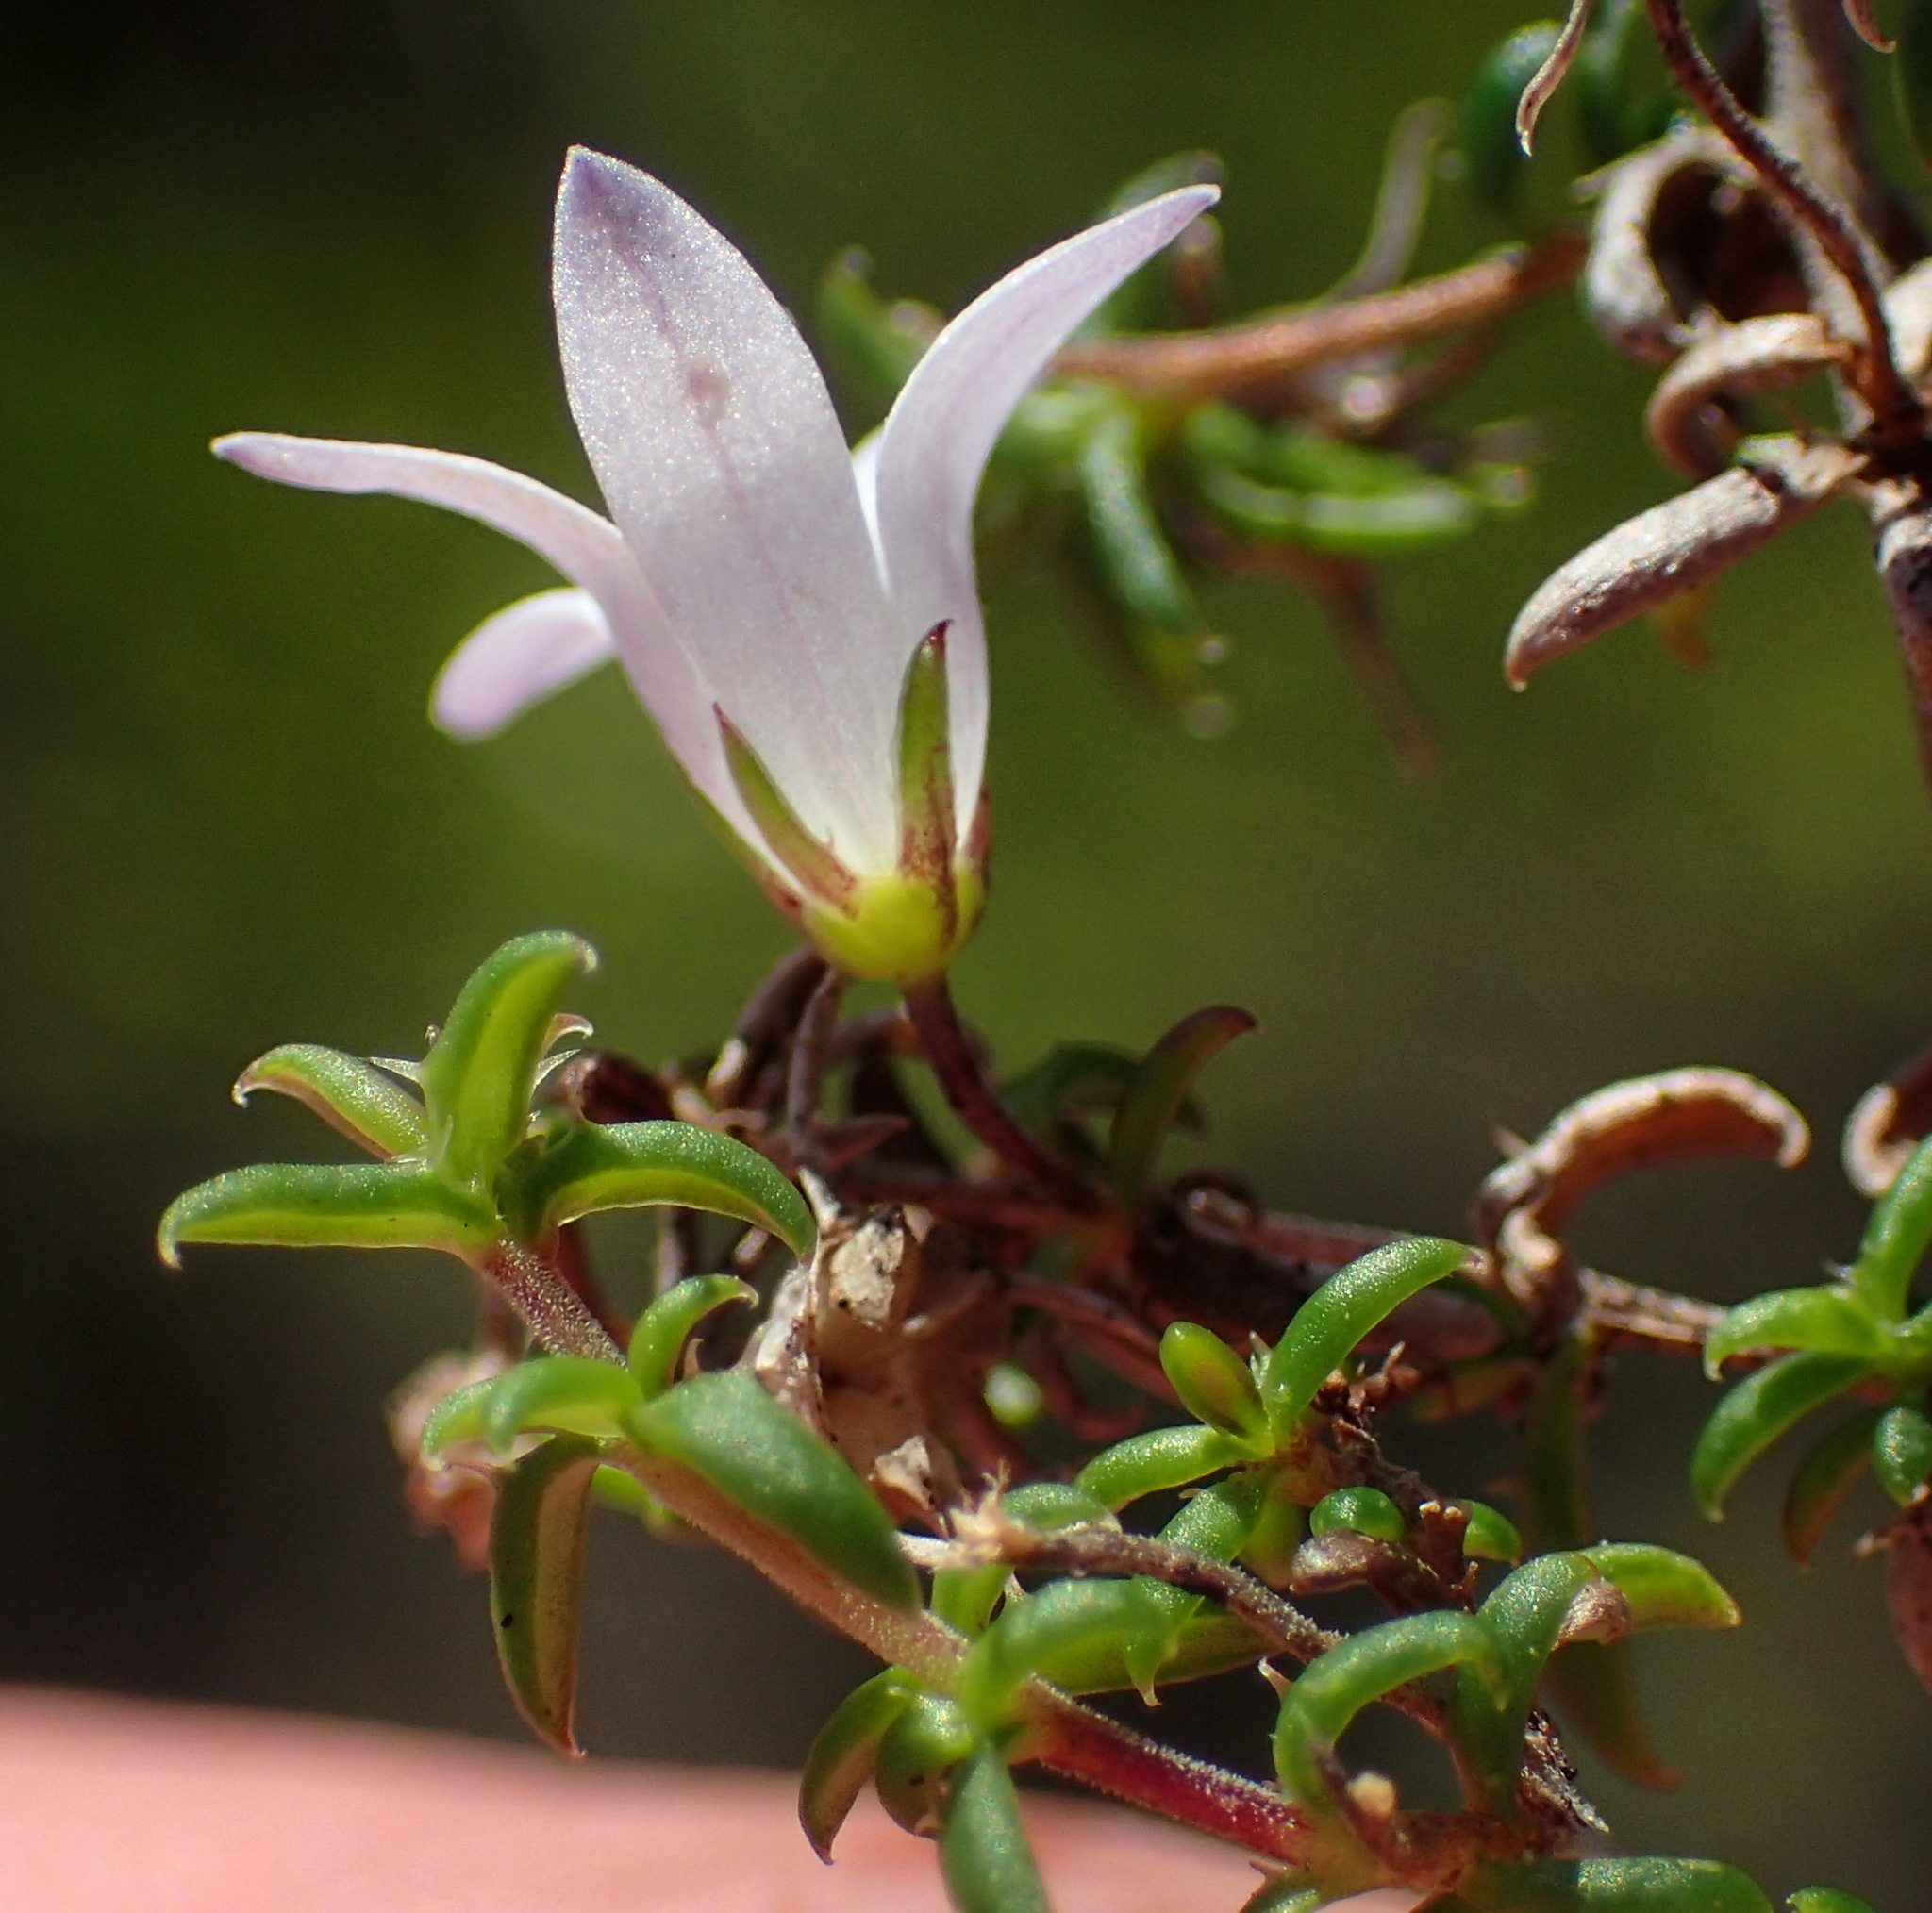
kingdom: Plantae
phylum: Tracheophyta
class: Magnoliopsida
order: Asterales
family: Campanulaceae
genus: Wahlenbergia
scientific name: Wahlenbergia thunbergii
